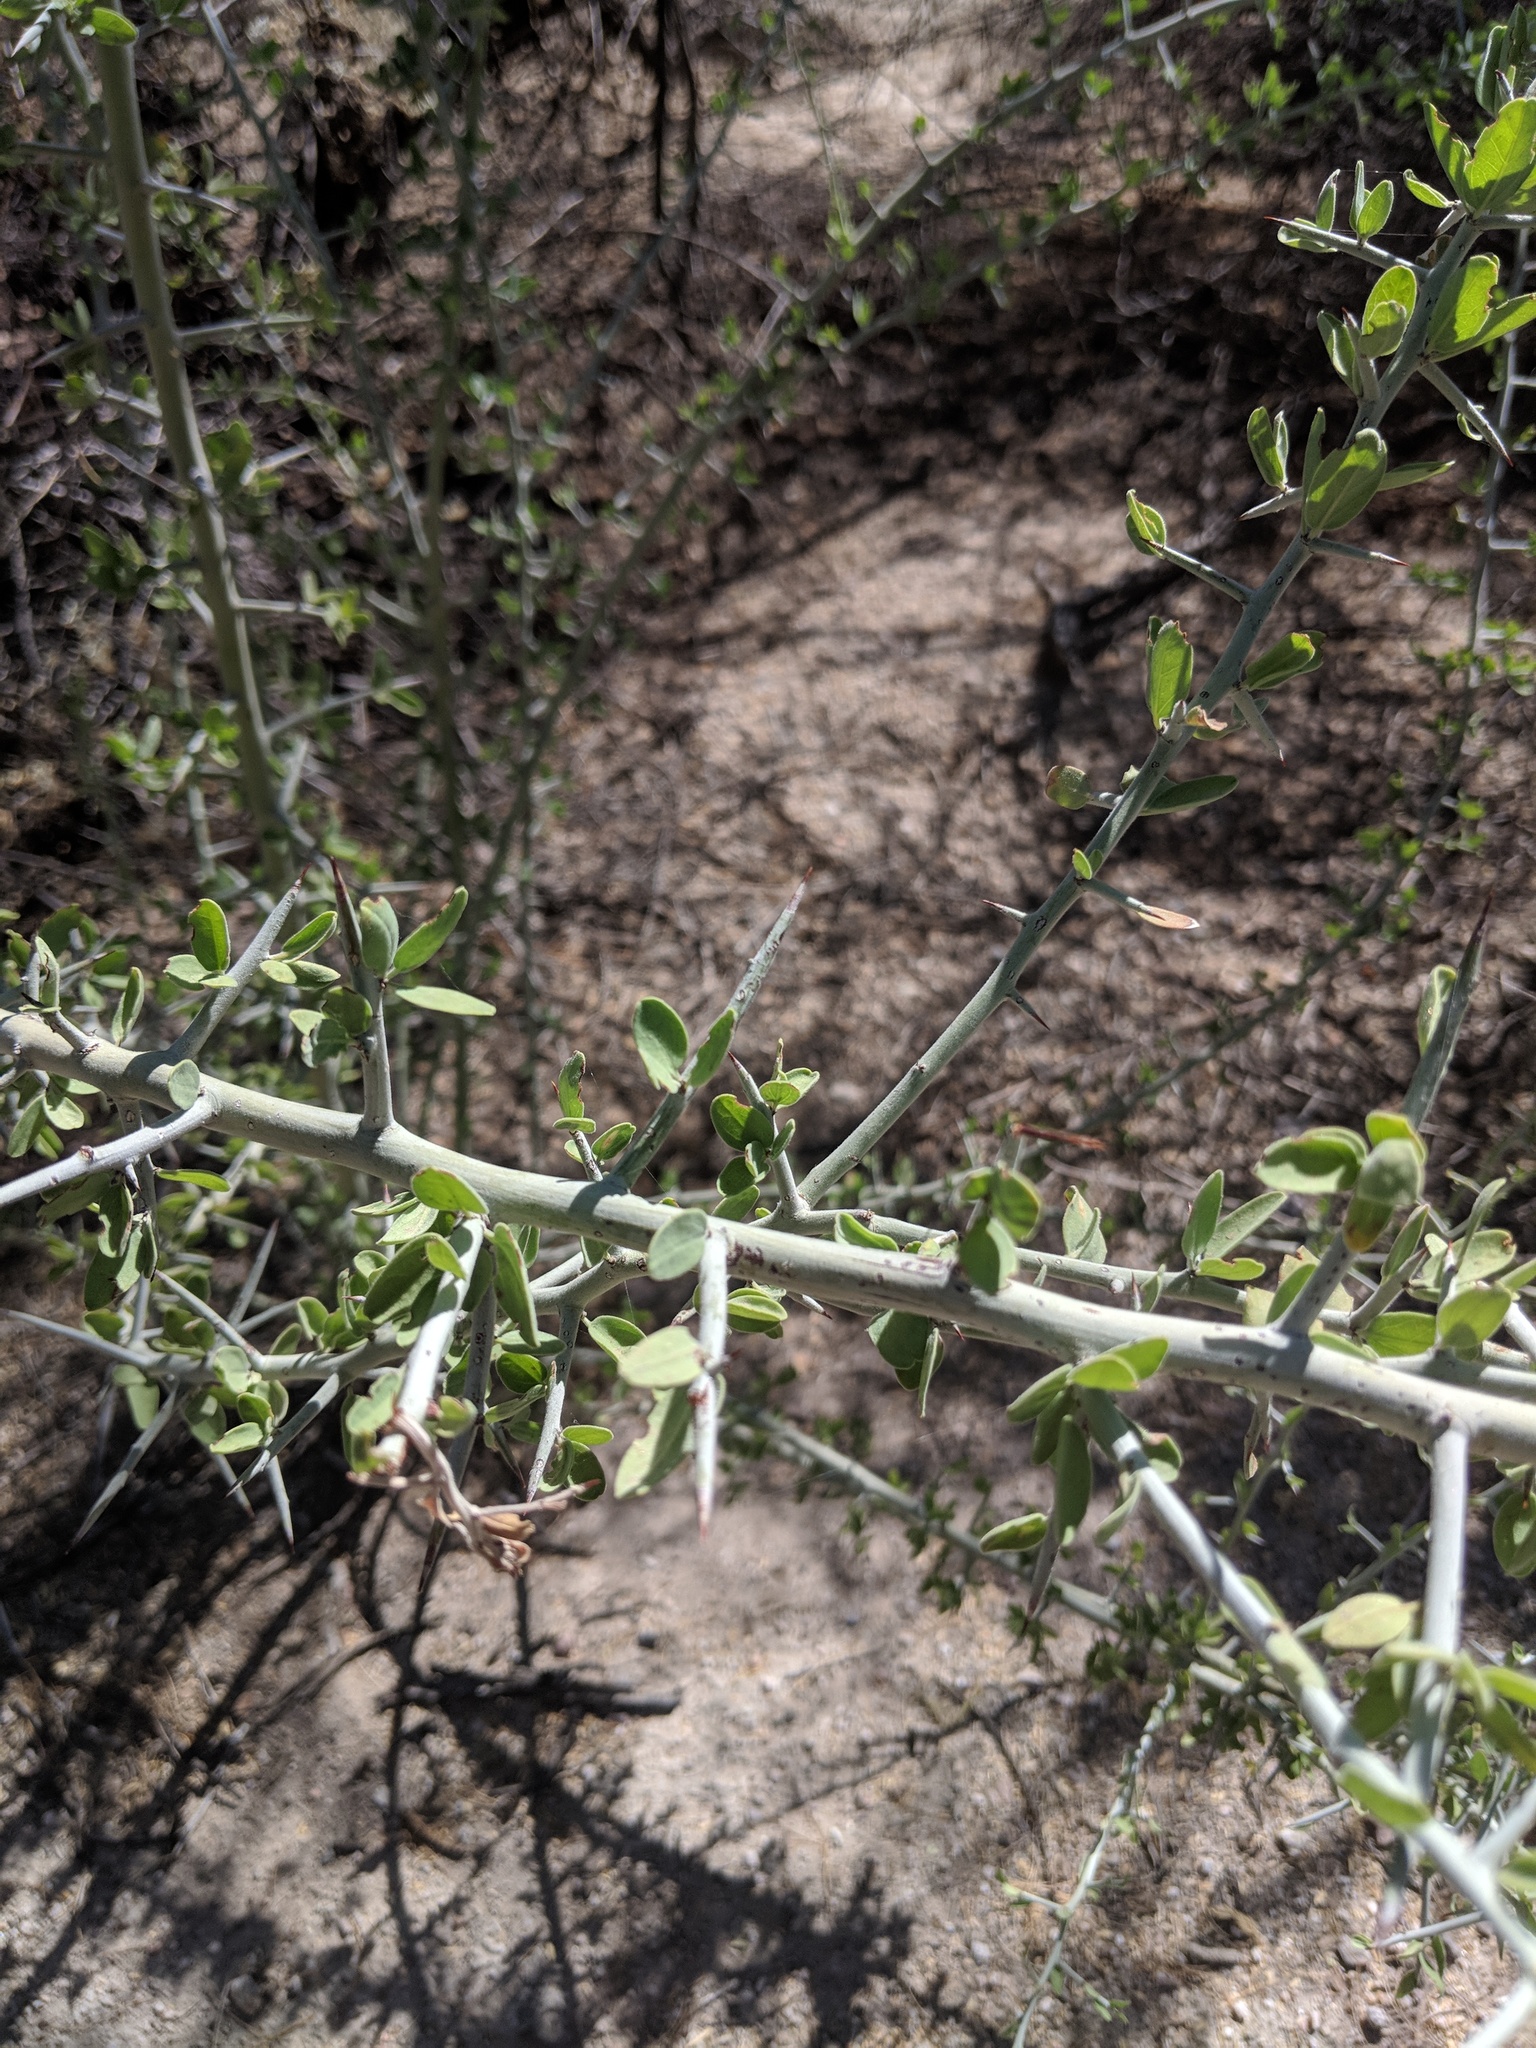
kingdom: Plantae
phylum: Tracheophyta
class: Magnoliopsida
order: Rosales
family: Rhamnaceae
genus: Sarcomphalus
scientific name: Sarcomphalus obtusifolius
